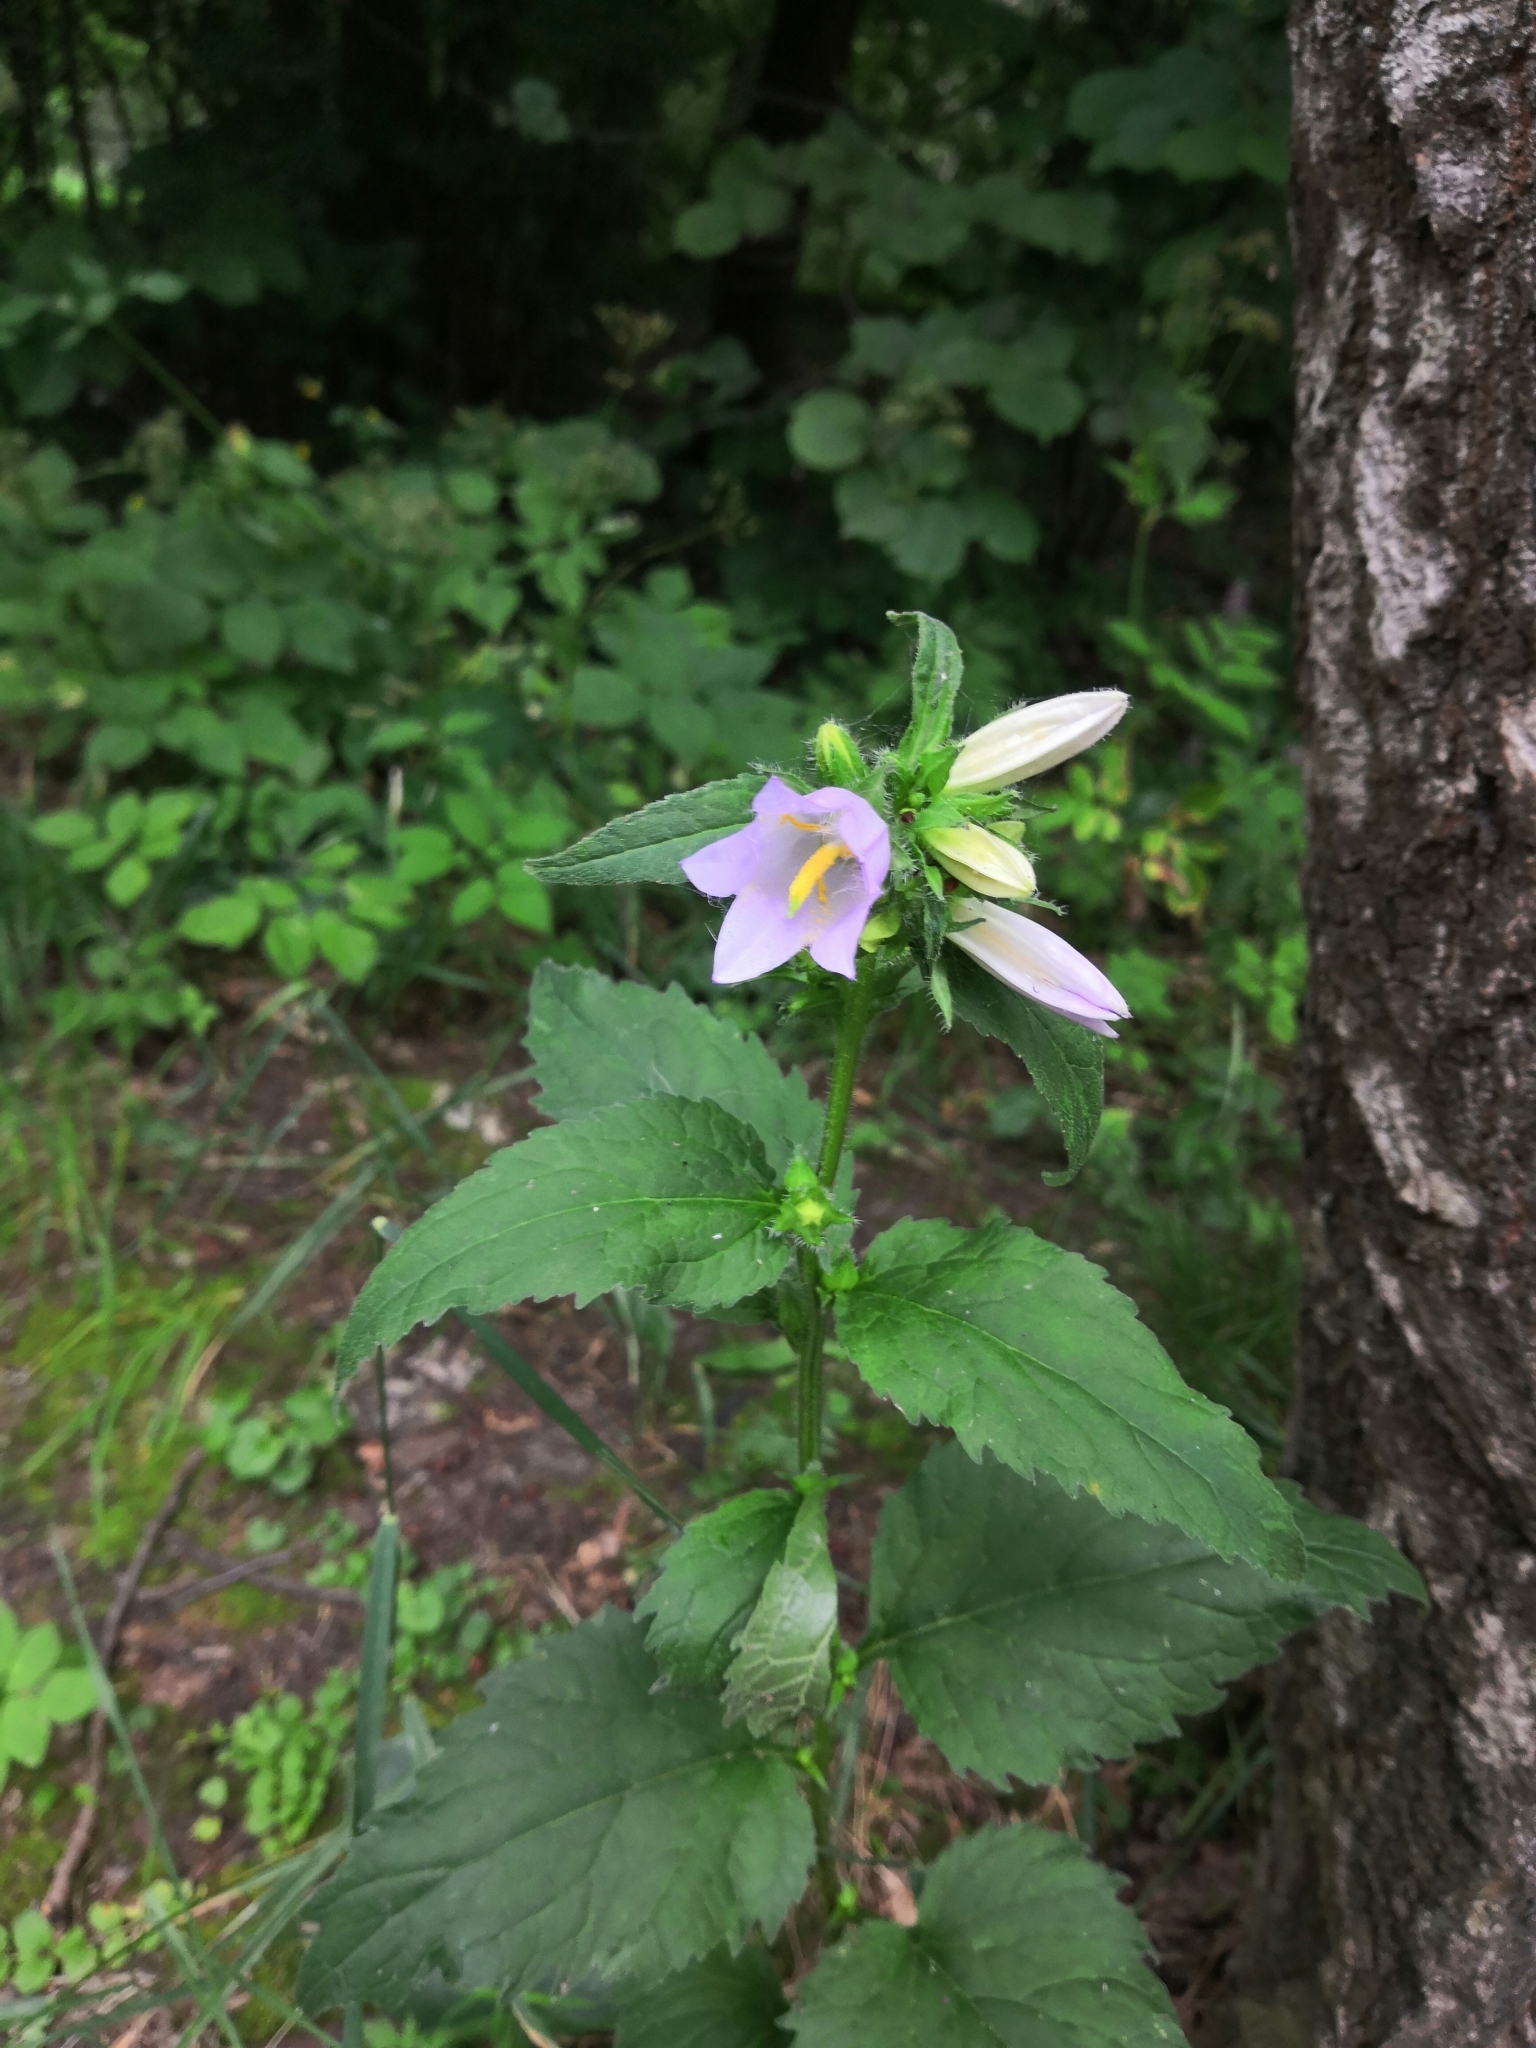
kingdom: Plantae
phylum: Tracheophyta
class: Magnoliopsida
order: Asterales
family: Campanulaceae
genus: Campanula
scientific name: Campanula trachelium
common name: Nettle-leaved bellflower
